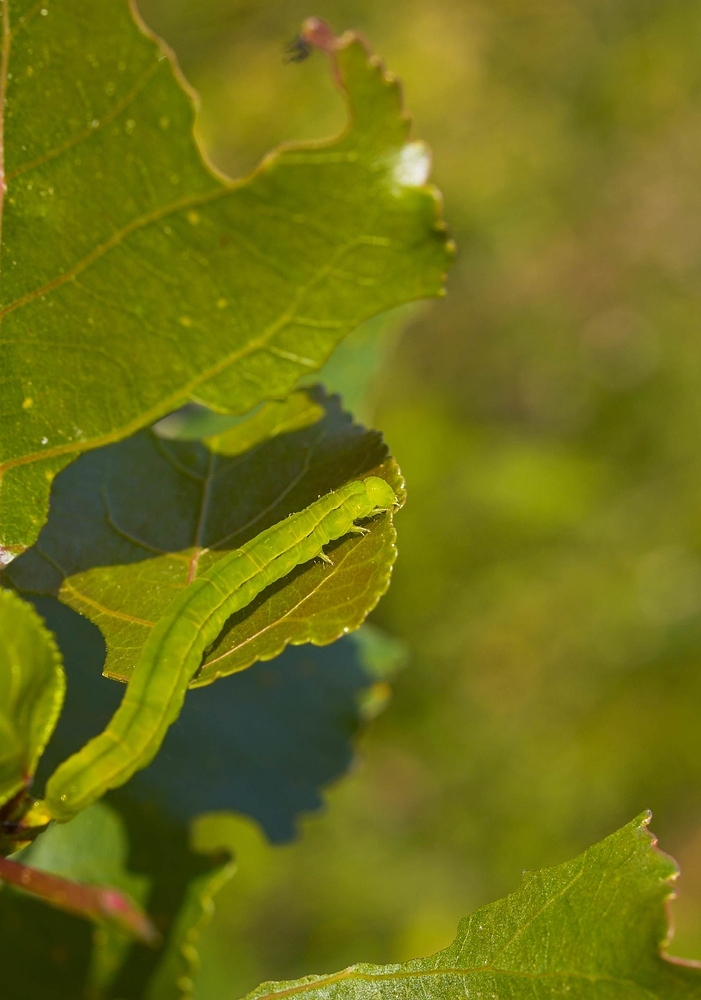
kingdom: Animalia
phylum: Arthropoda
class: Insecta
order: Lepidoptera
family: Erebidae
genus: Scoliopteryx
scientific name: Scoliopteryx libatrix
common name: Herald
